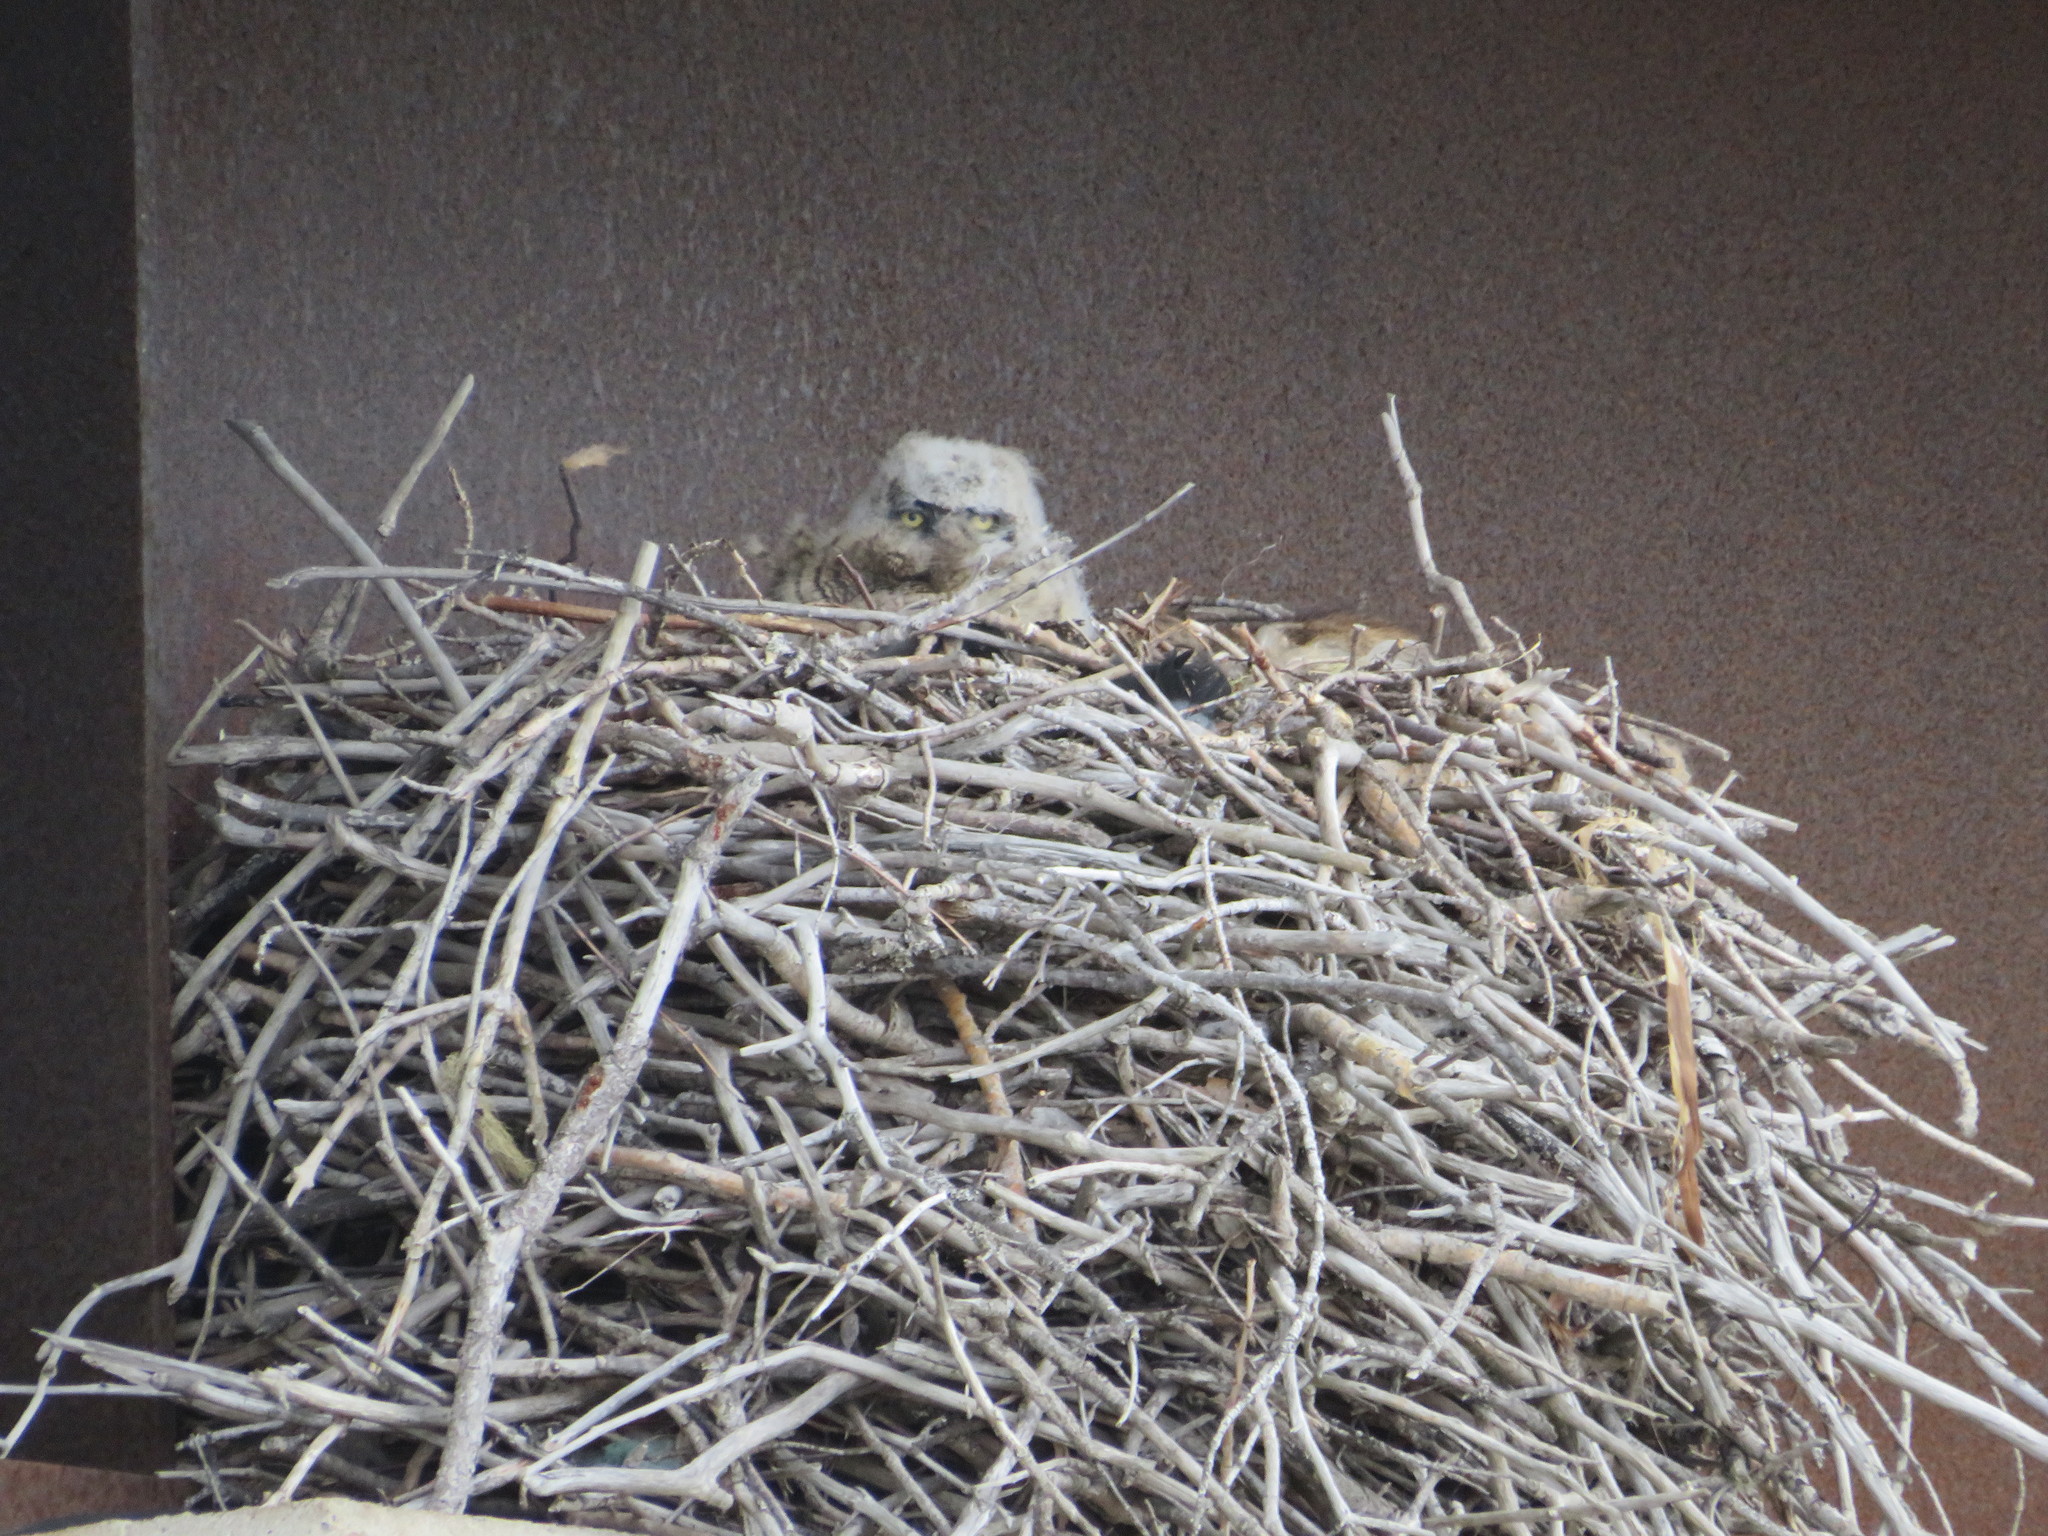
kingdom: Animalia
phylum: Chordata
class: Aves
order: Strigiformes
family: Strigidae
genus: Bubo
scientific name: Bubo virginianus
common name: Great horned owl
